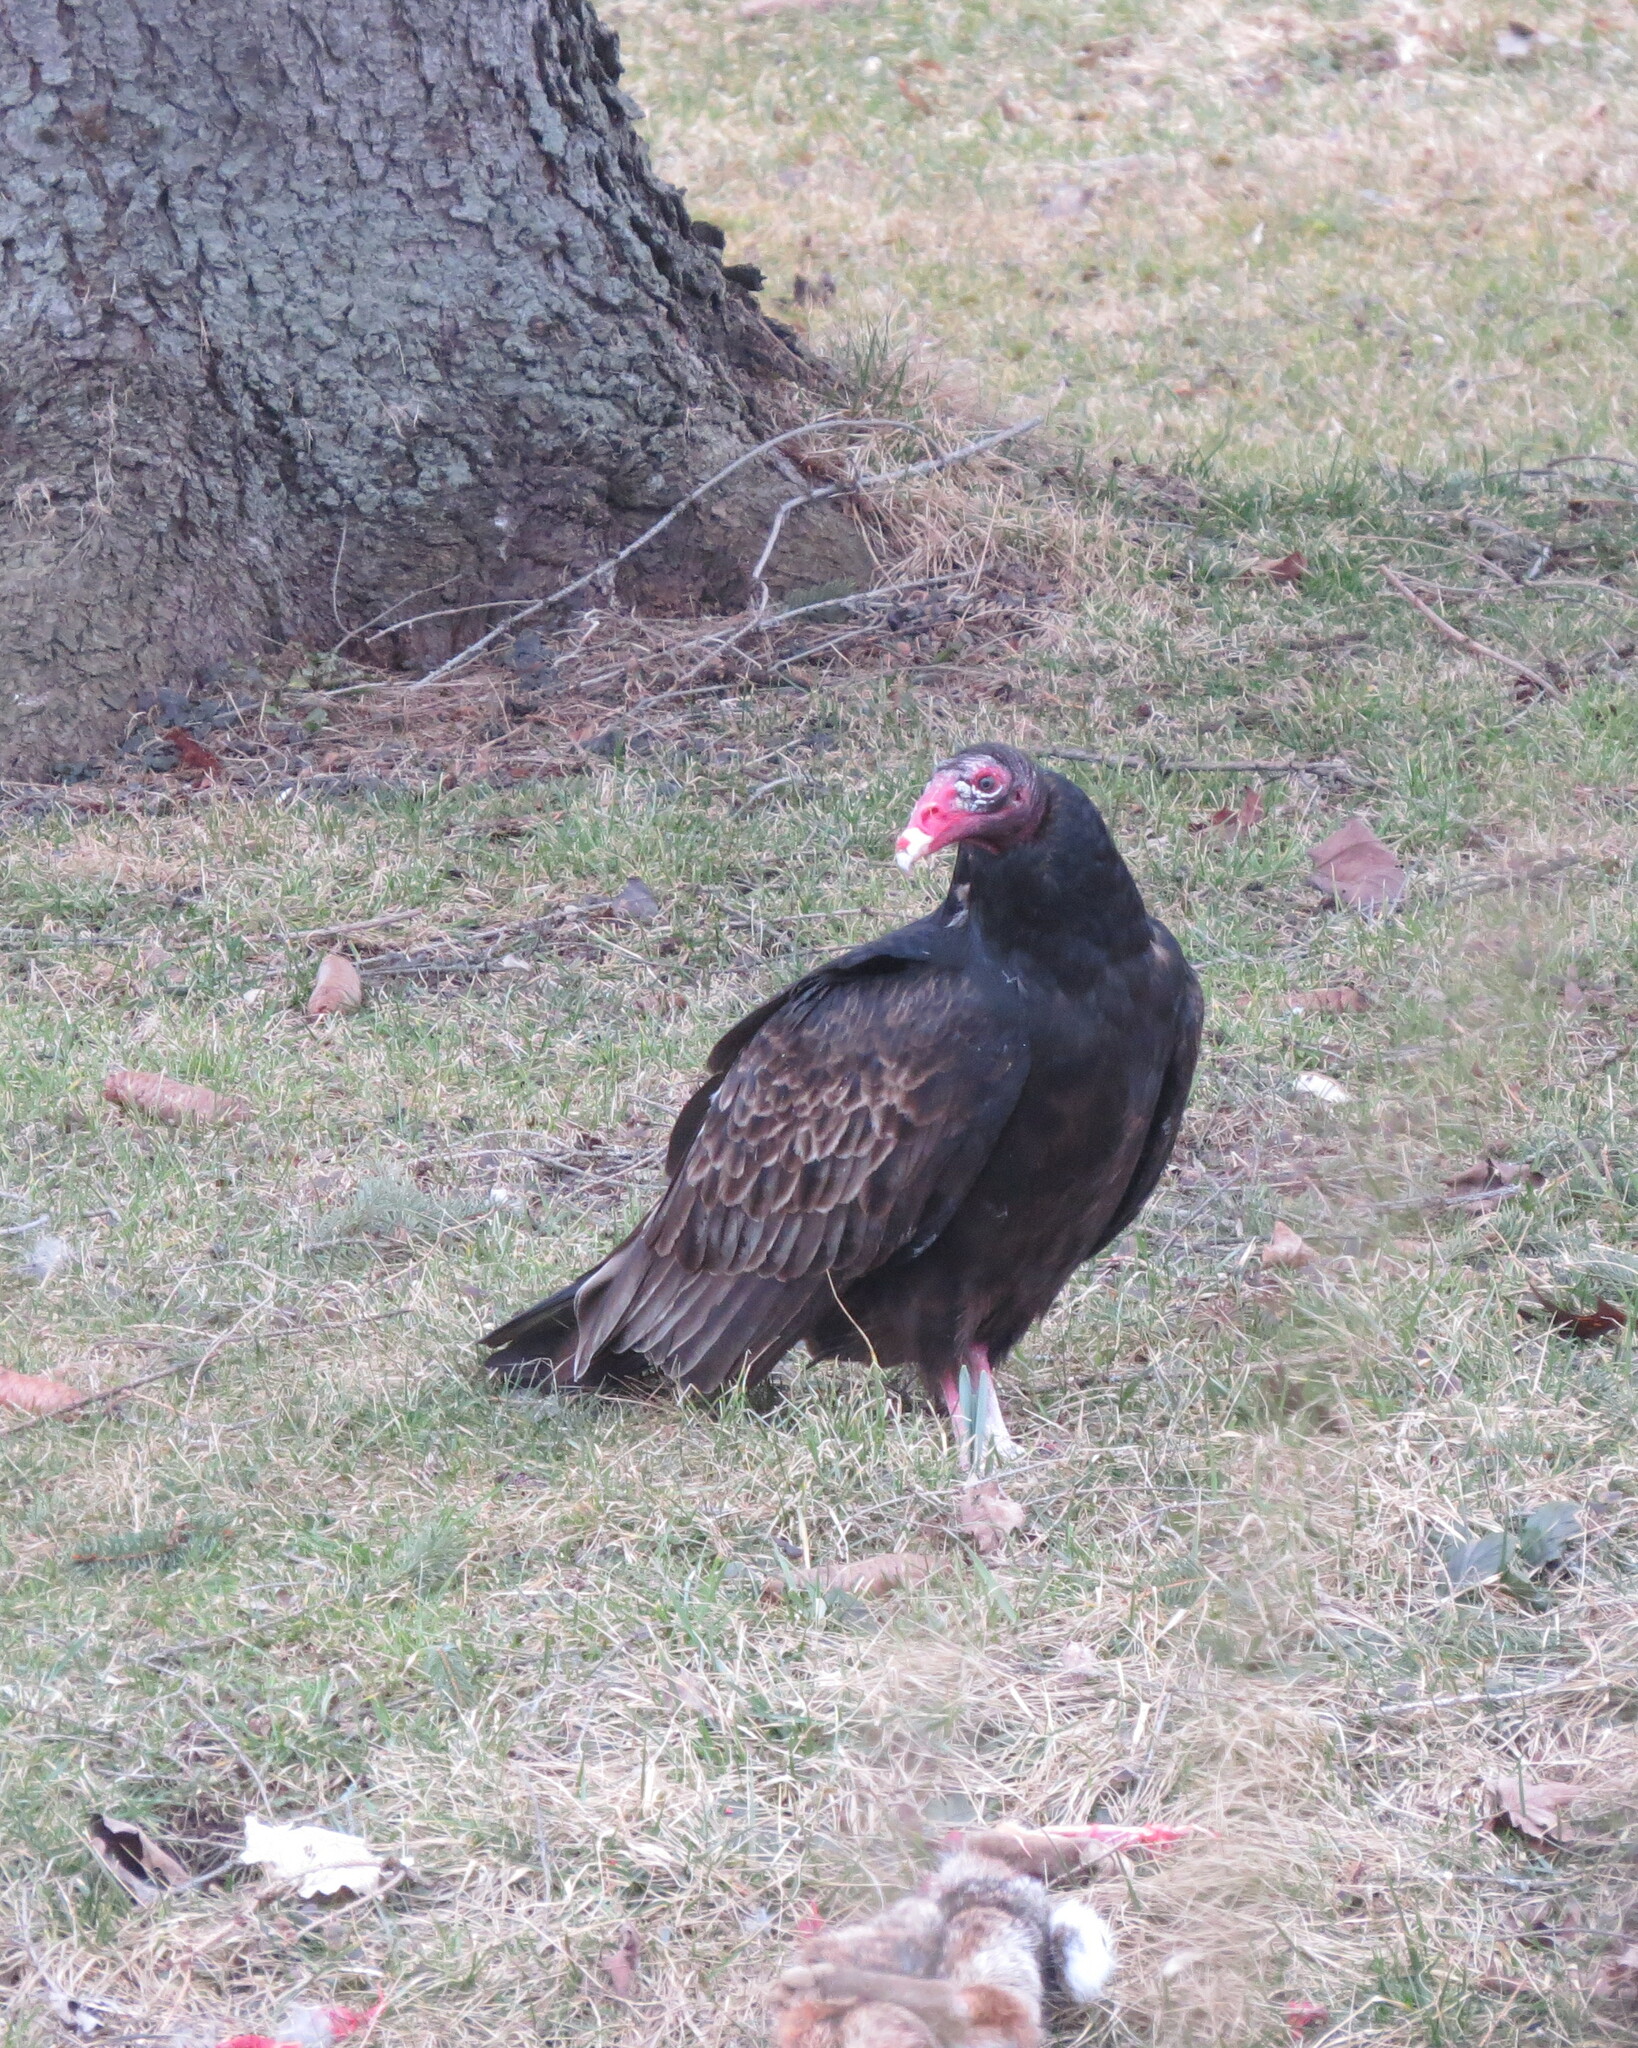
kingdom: Animalia
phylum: Chordata
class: Aves
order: Accipitriformes
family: Cathartidae
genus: Cathartes
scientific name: Cathartes aura
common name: Turkey vulture
